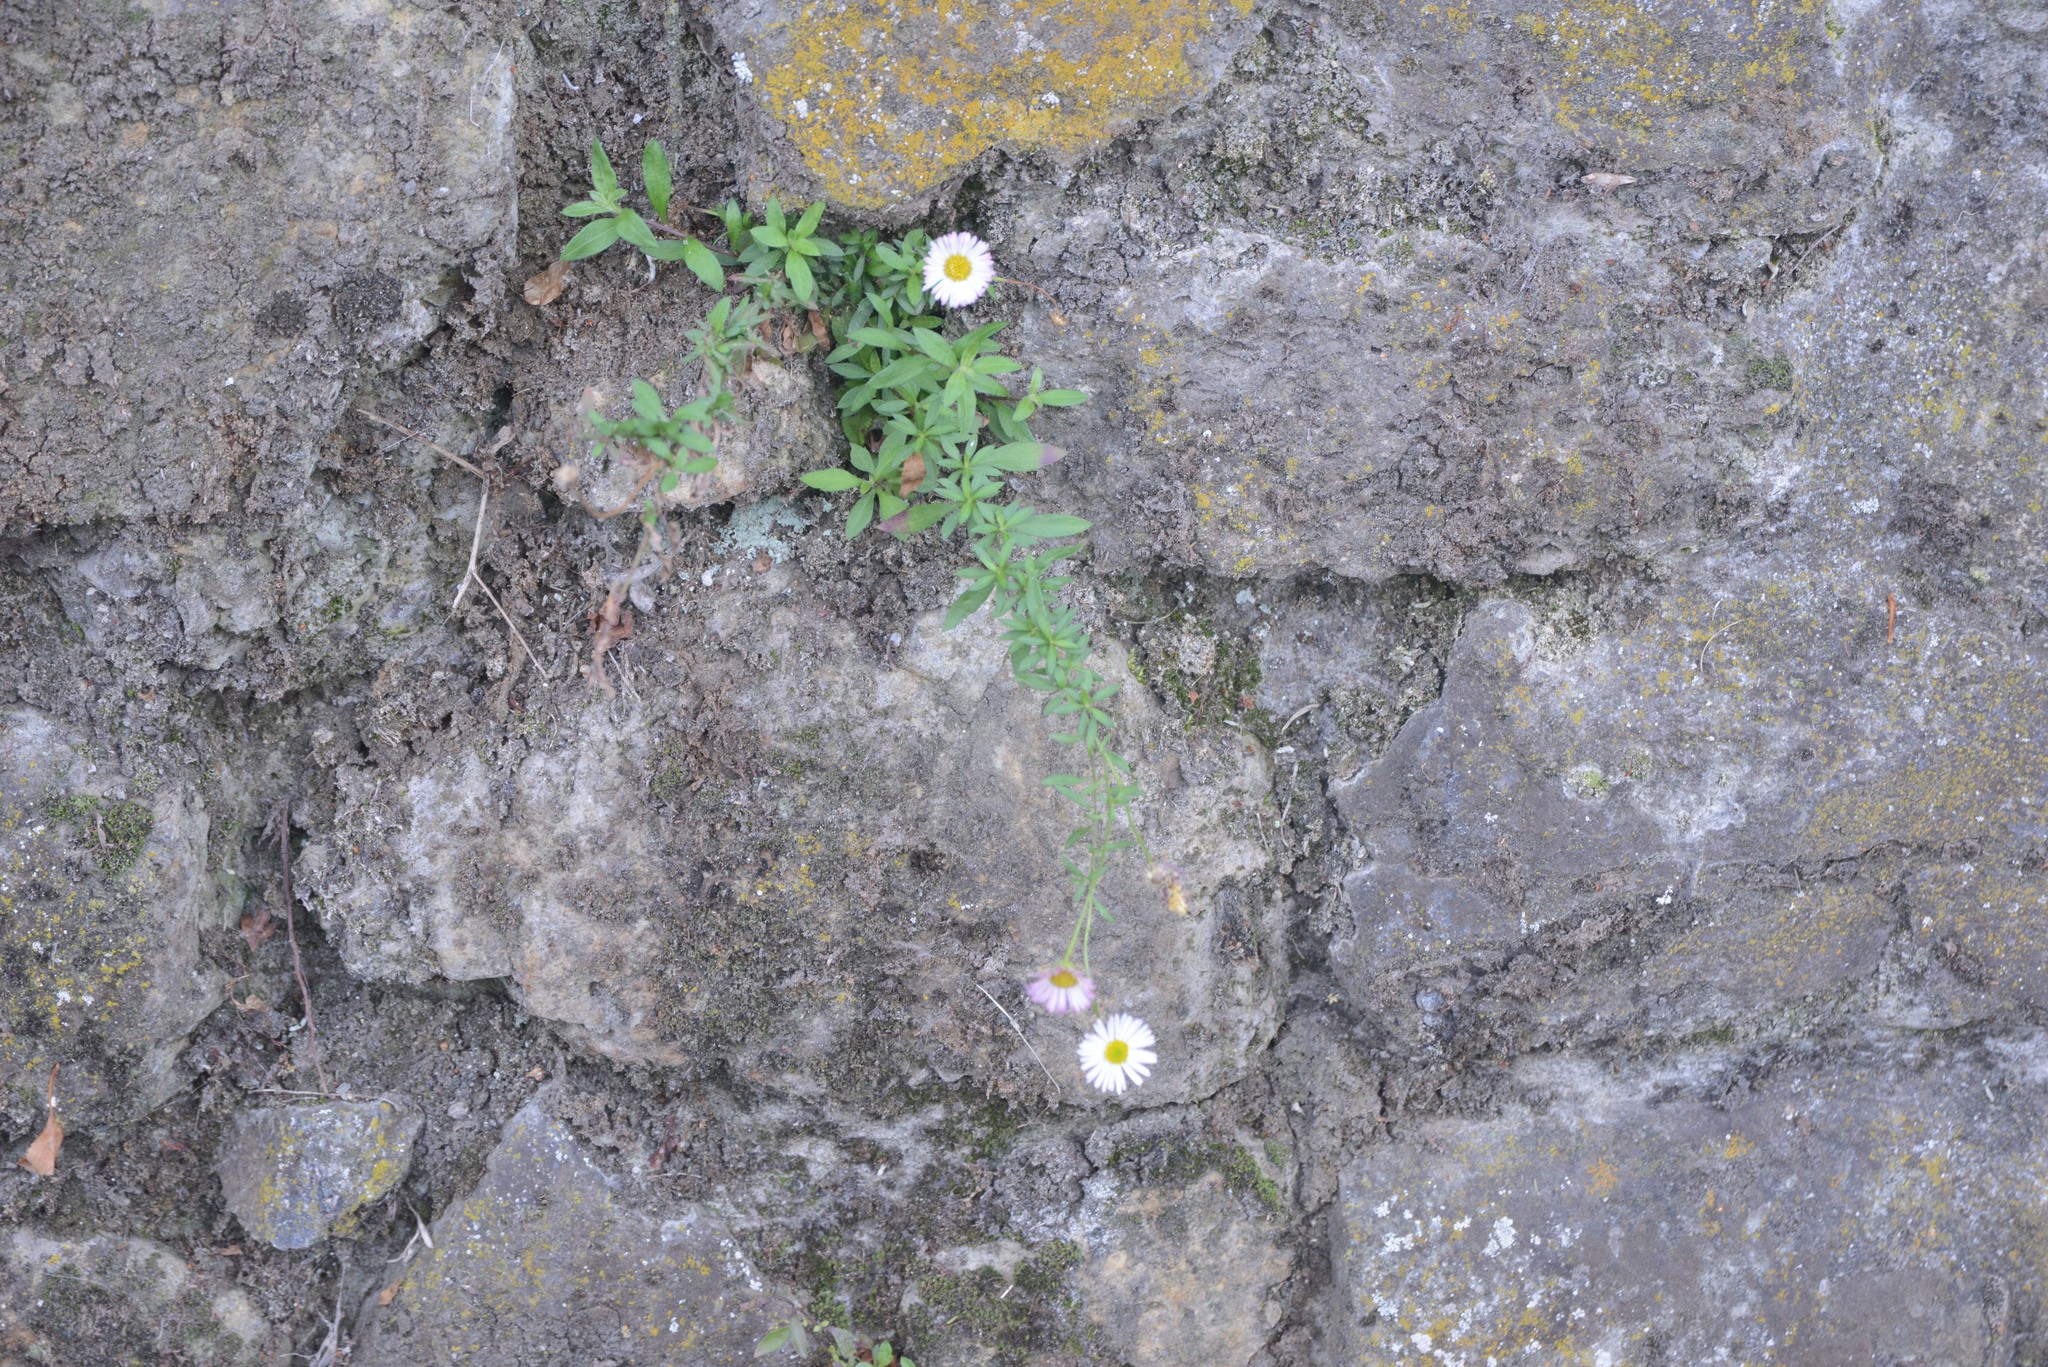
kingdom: Plantae
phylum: Tracheophyta
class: Magnoliopsida
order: Asterales
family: Asteraceae
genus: Erigeron
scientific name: Erigeron karvinskianus
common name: Mexican fleabane
